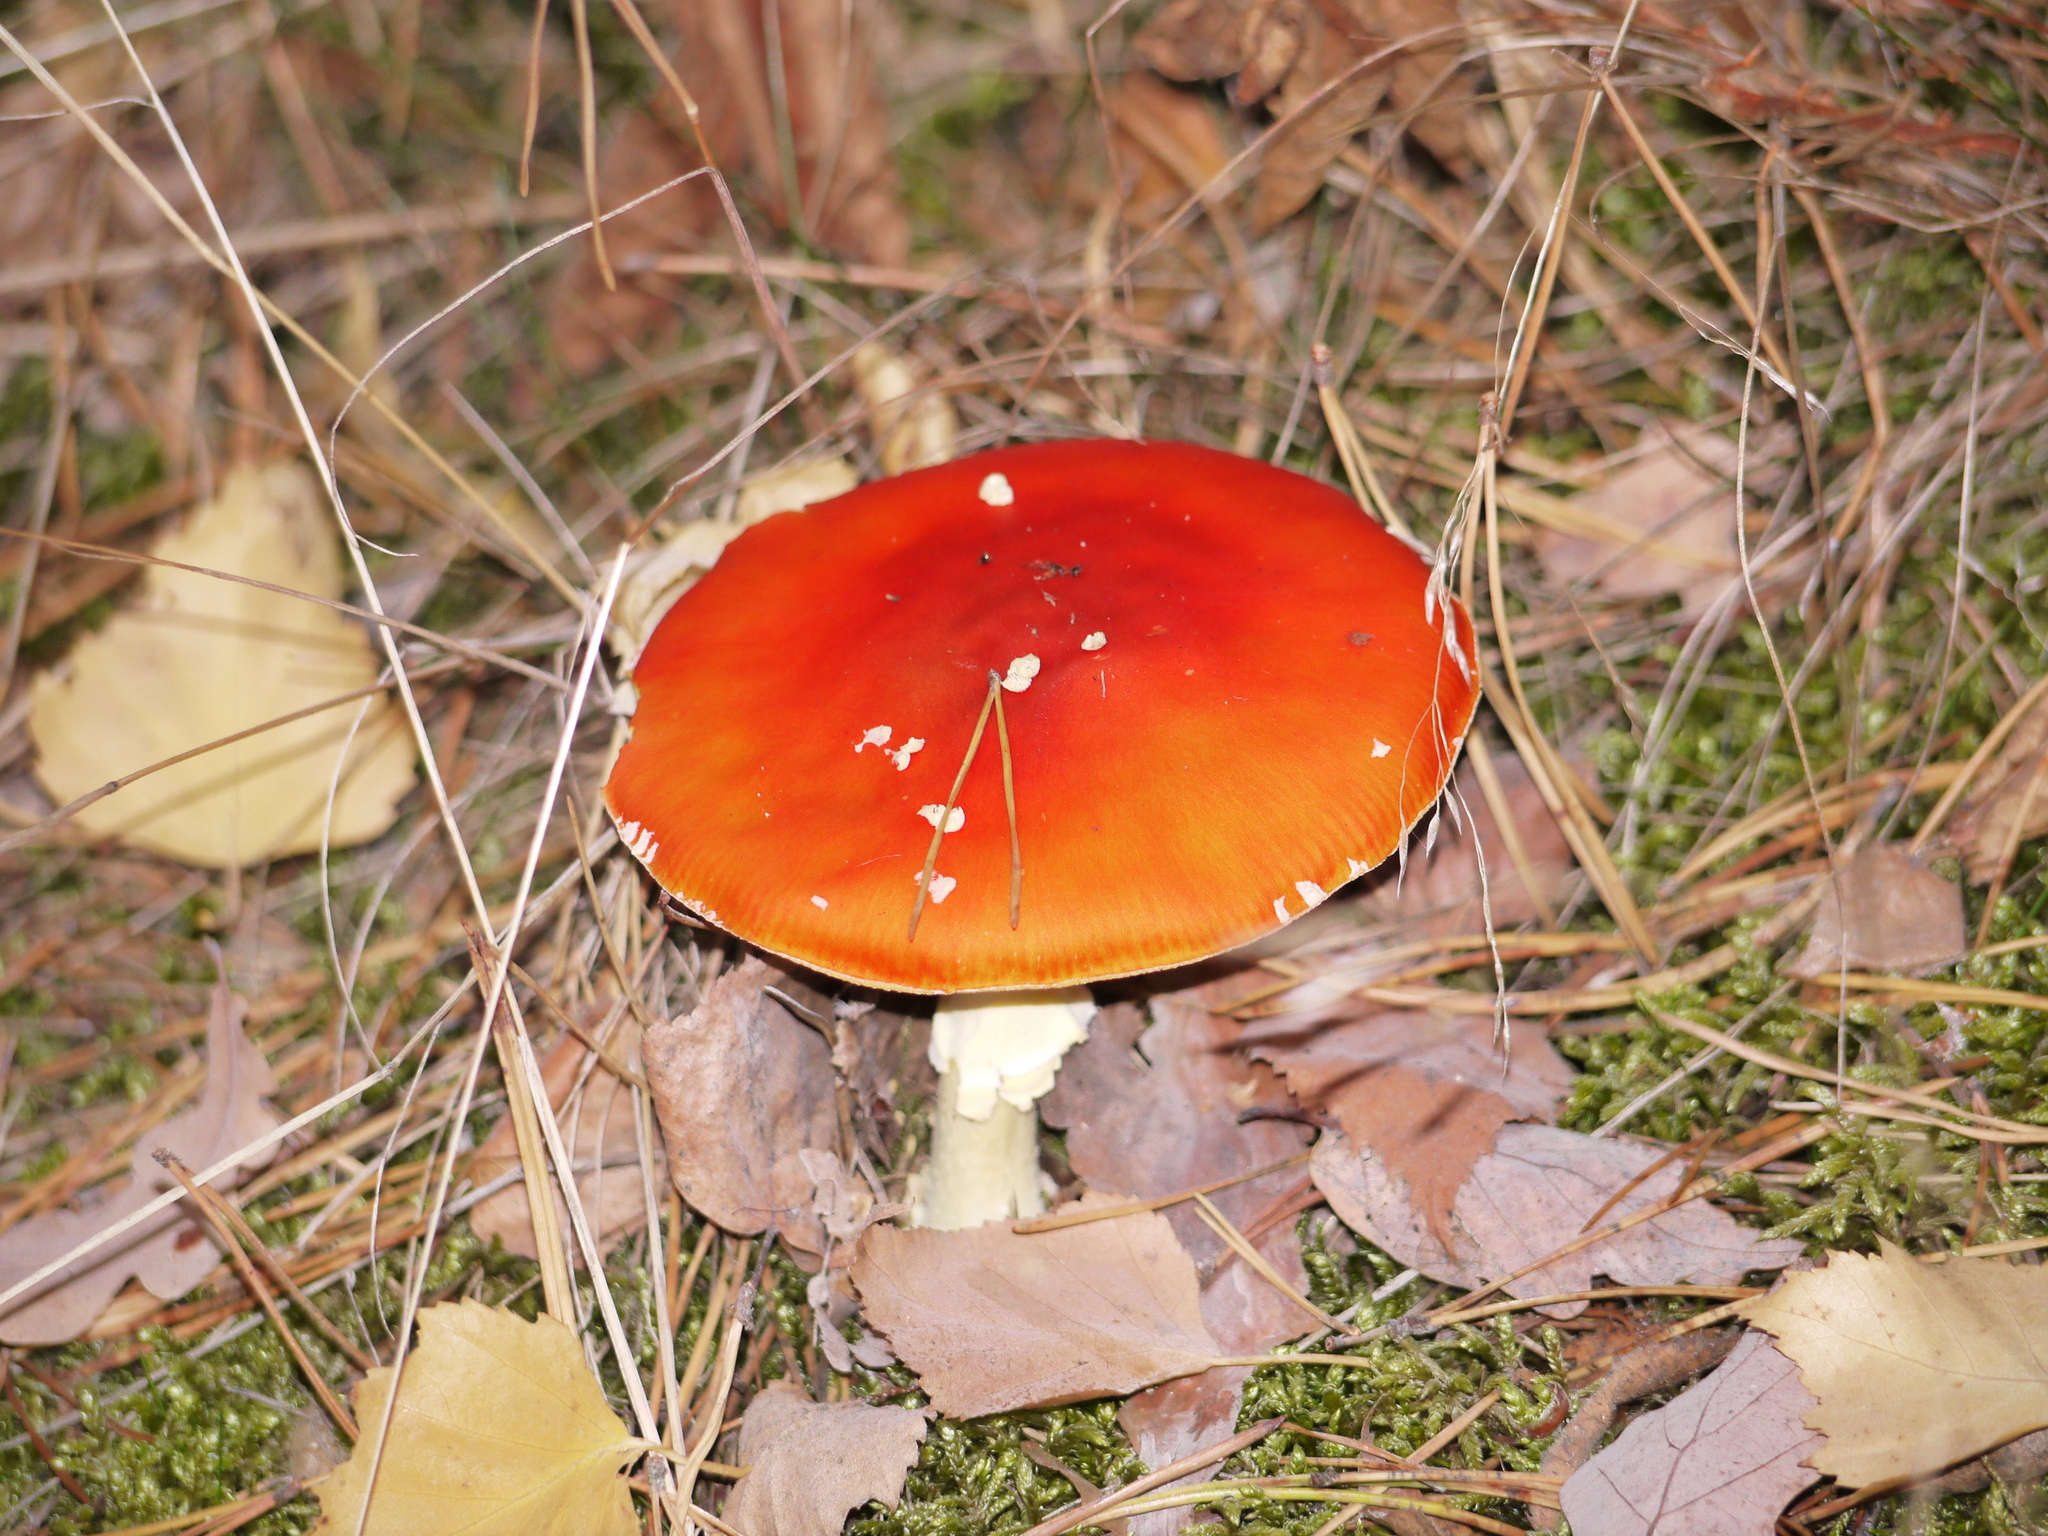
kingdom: Fungi
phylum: Basidiomycota
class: Agaricomycetes
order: Agaricales
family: Amanitaceae
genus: Amanita
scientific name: Amanita muscaria
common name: Fly agaric
